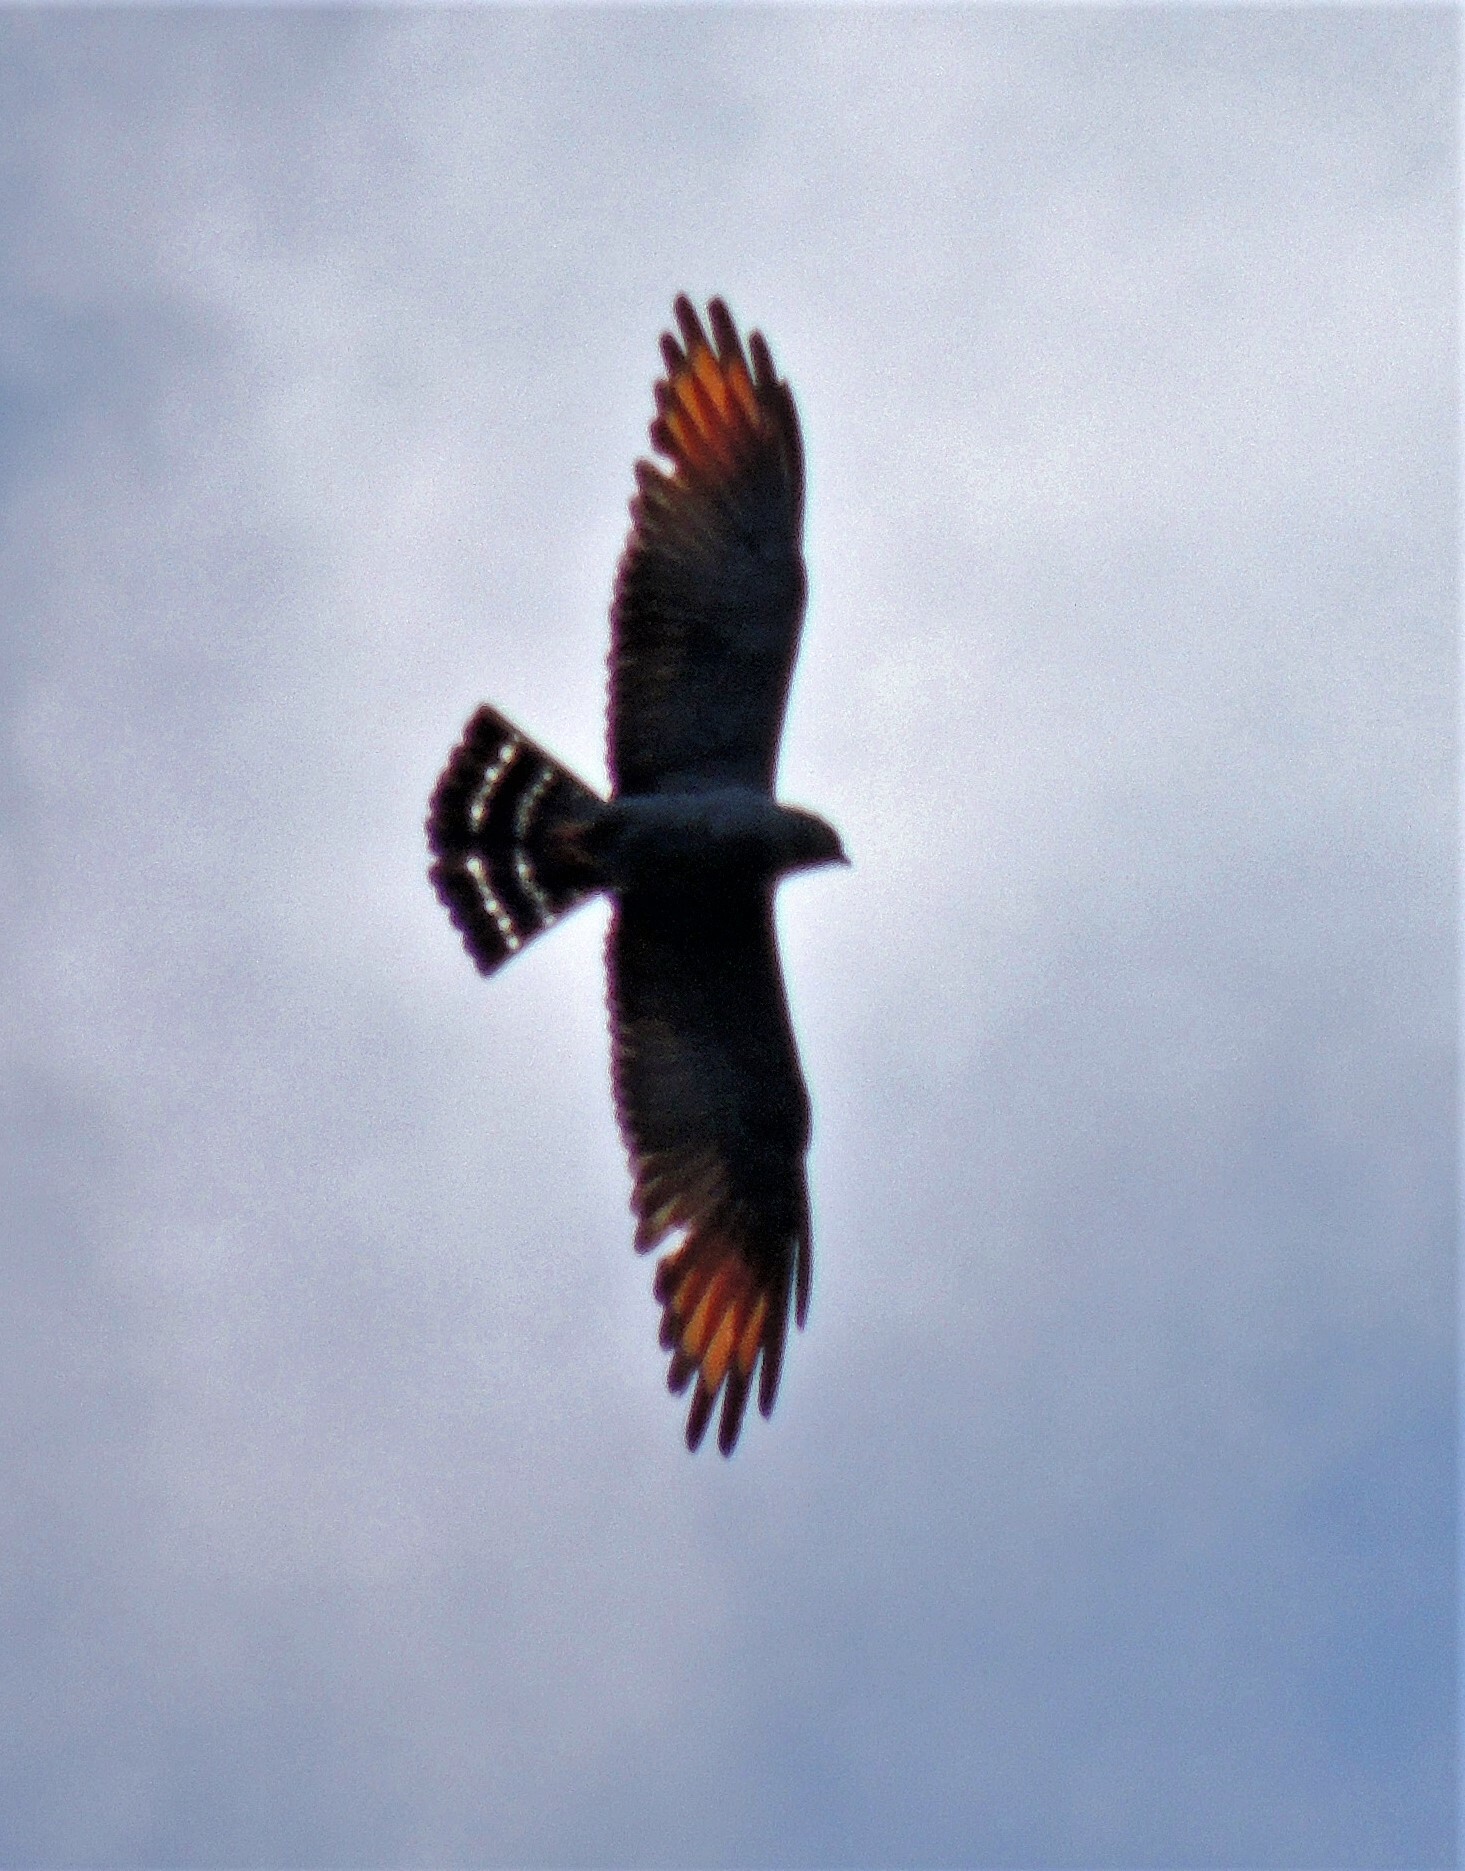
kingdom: Animalia
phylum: Chordata
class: Aves
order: Accipitriformes
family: Accipitridae
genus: Ictinia
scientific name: Ictinia plumbea
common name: Plumbeous kite
